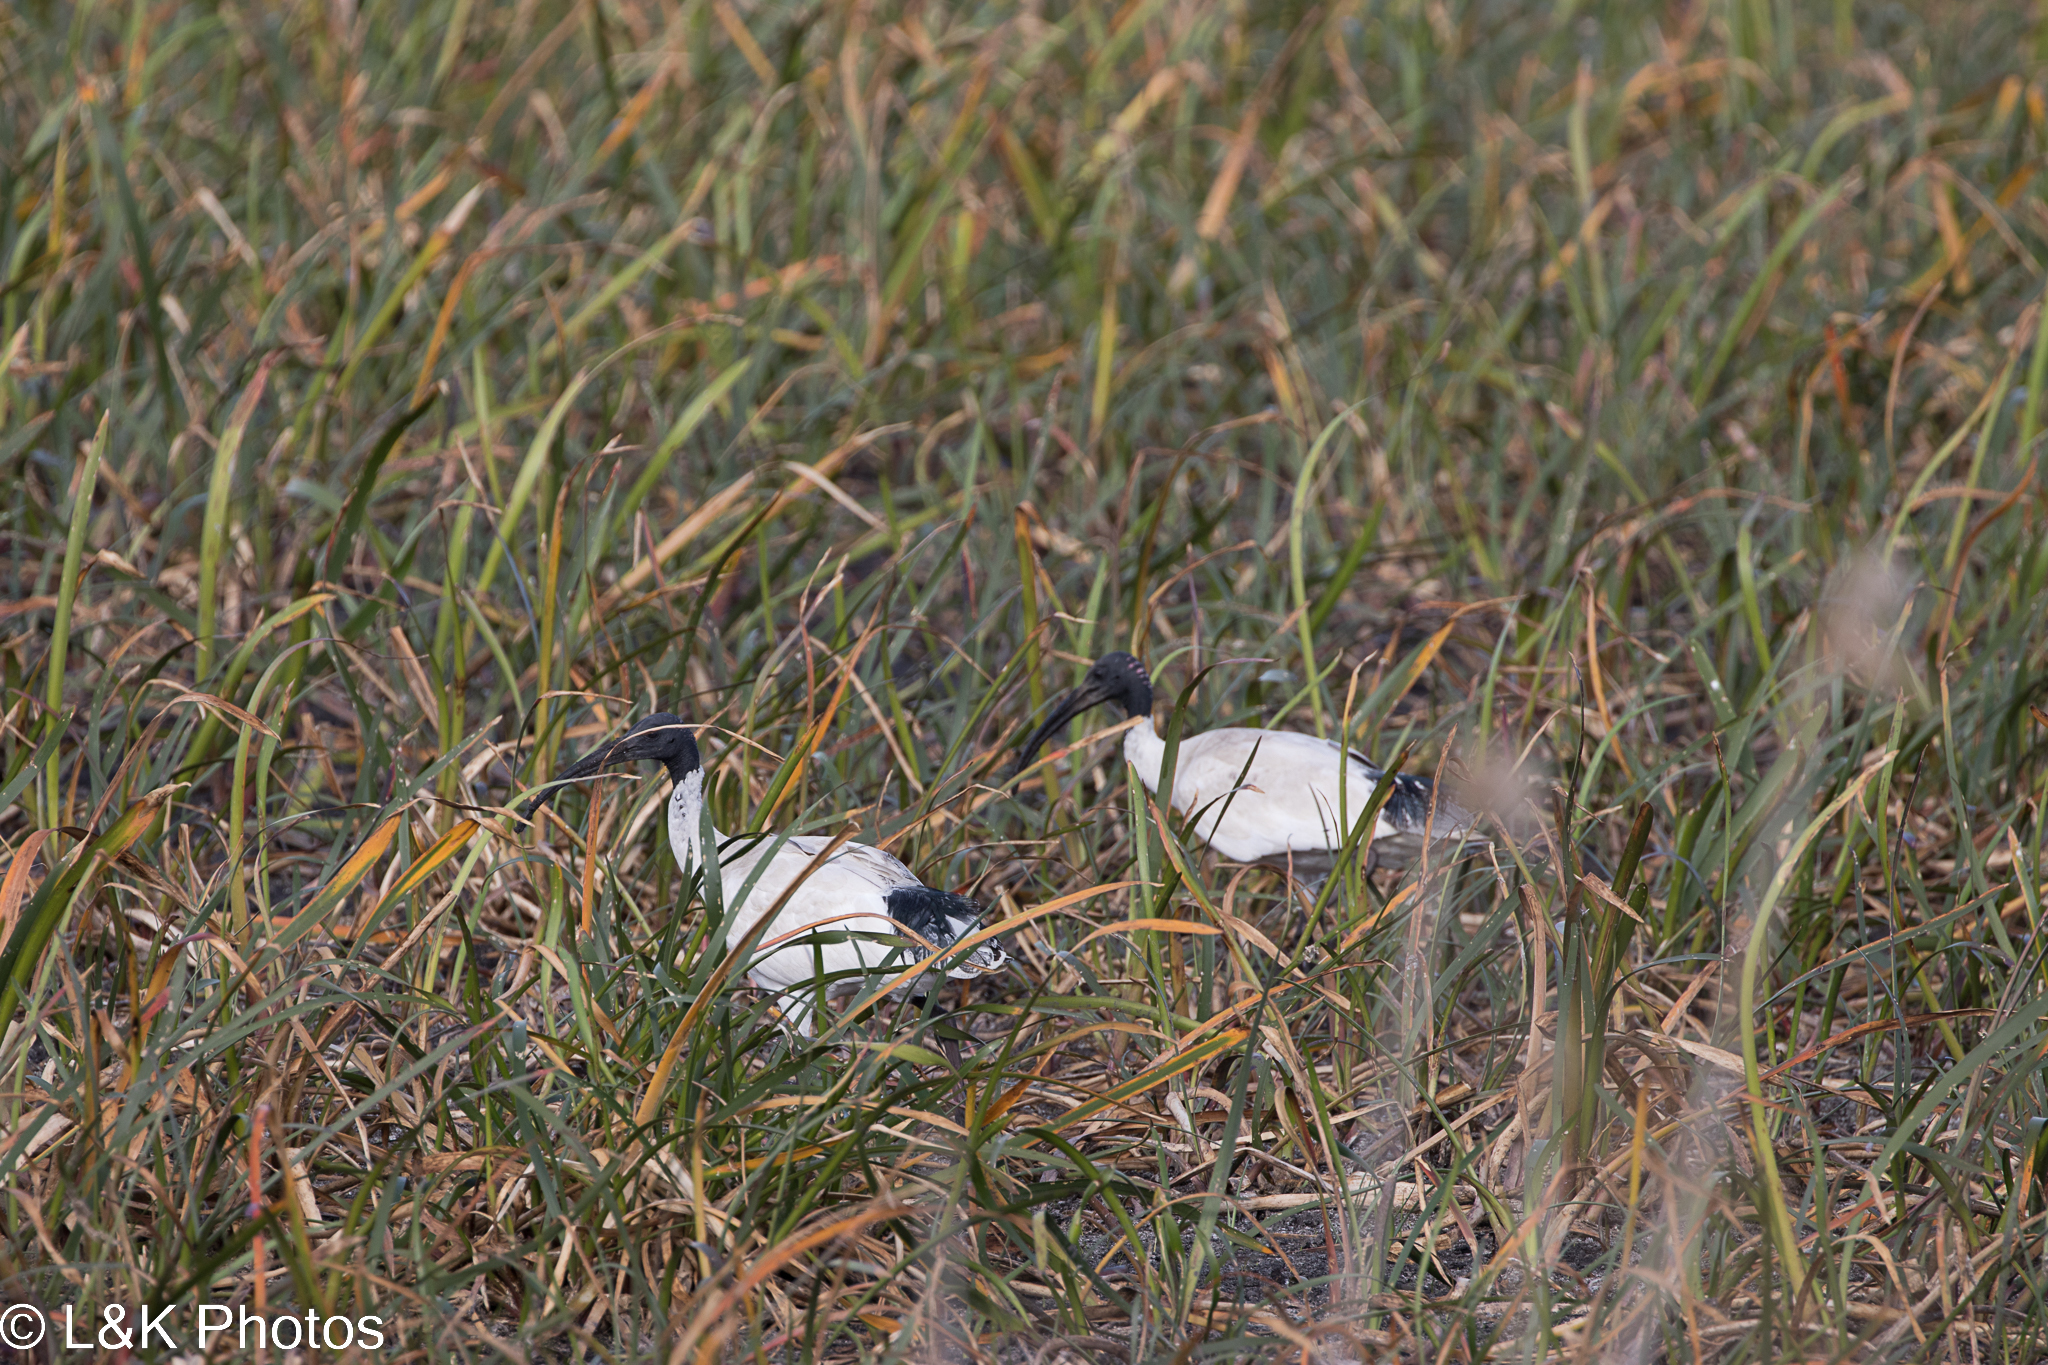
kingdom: Animalia
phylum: Chordata
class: Aves
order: Pelecaniformes
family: Threskiornithidae
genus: Threskiornis
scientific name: Threskiornis molucca
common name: Australian white ibis
